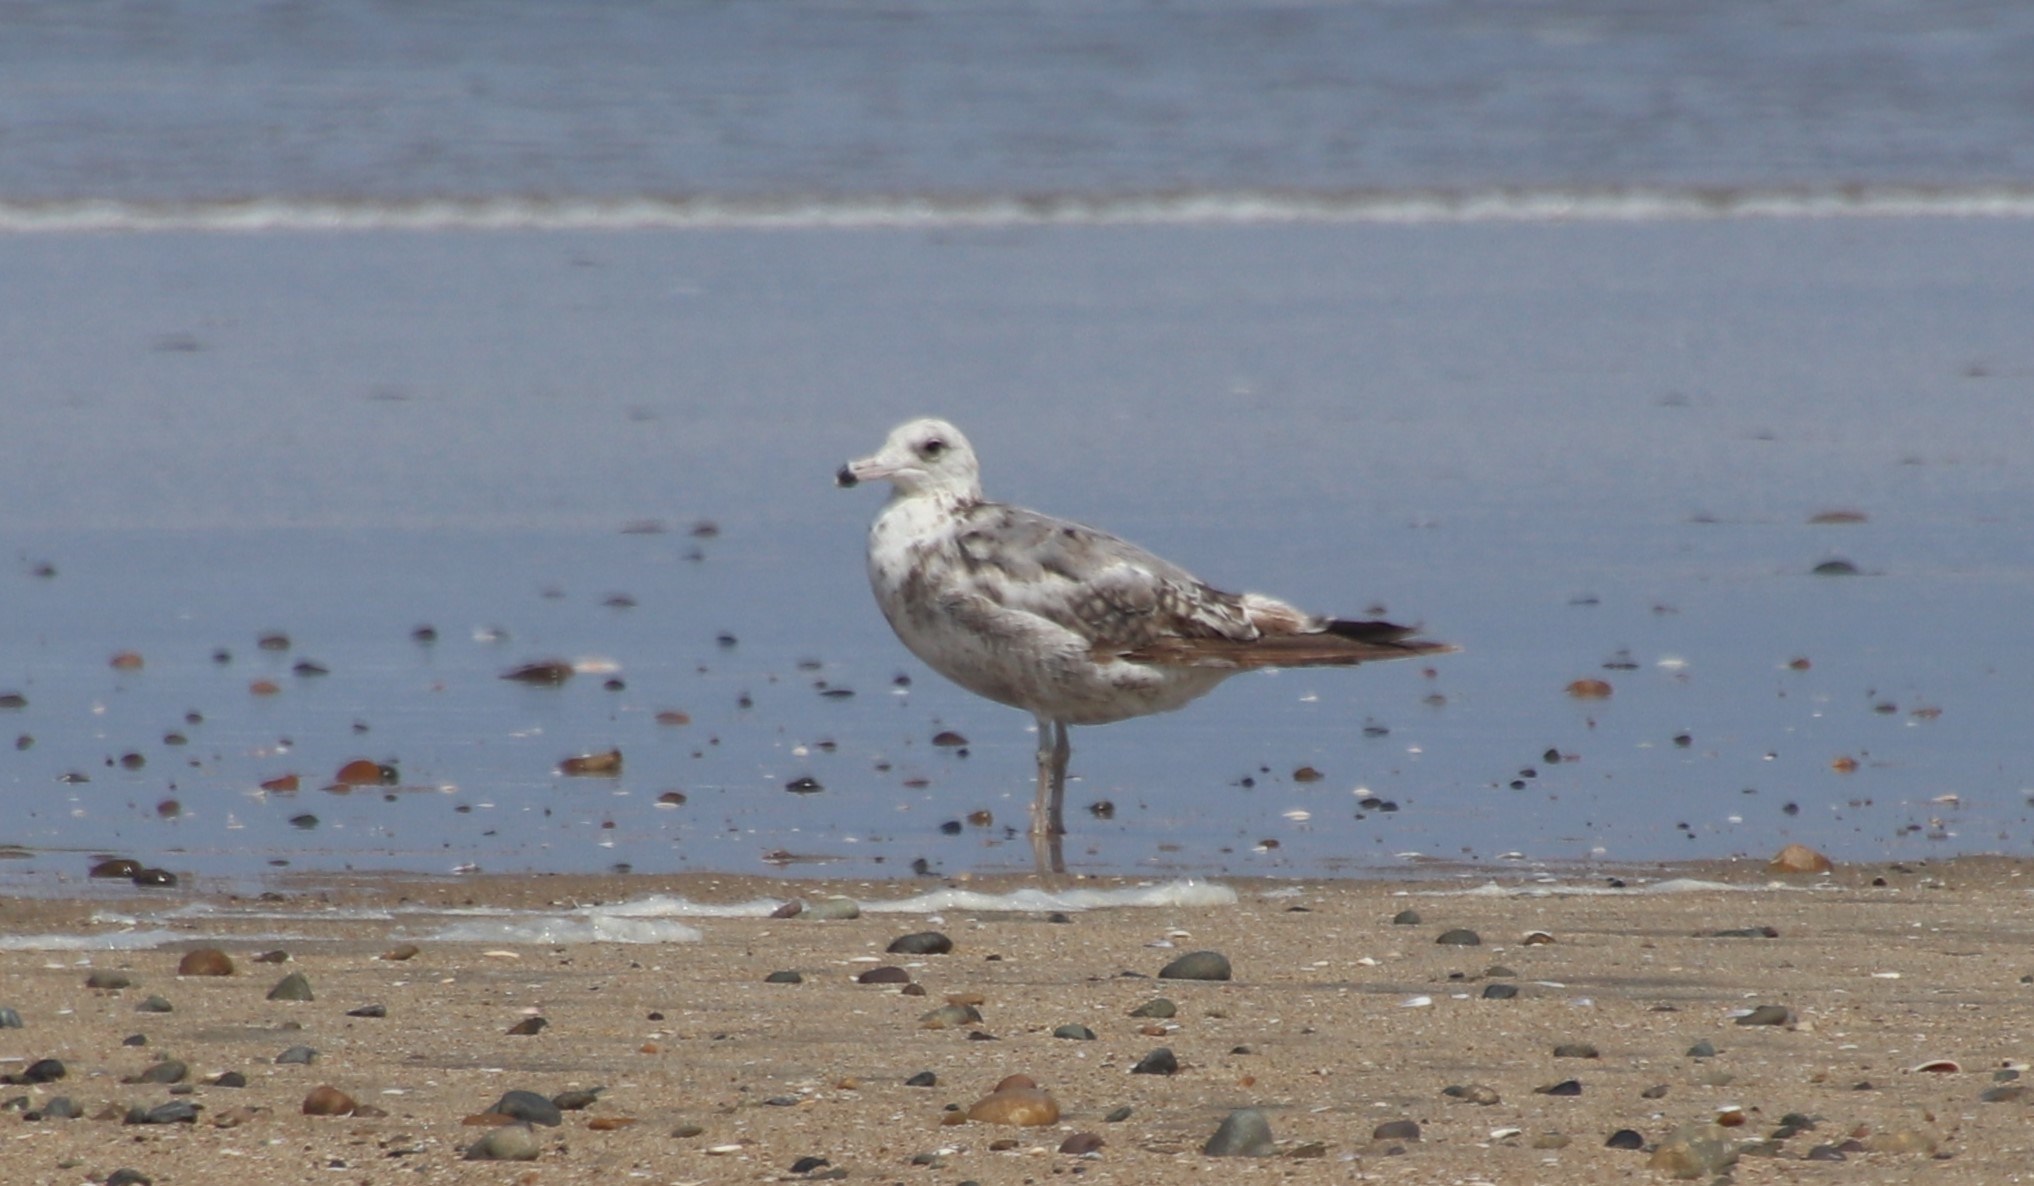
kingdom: Animalia
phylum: Chordata
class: Aves
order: Charadriiformes
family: Laridae
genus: Larus
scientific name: Larus californicus
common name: California gull
